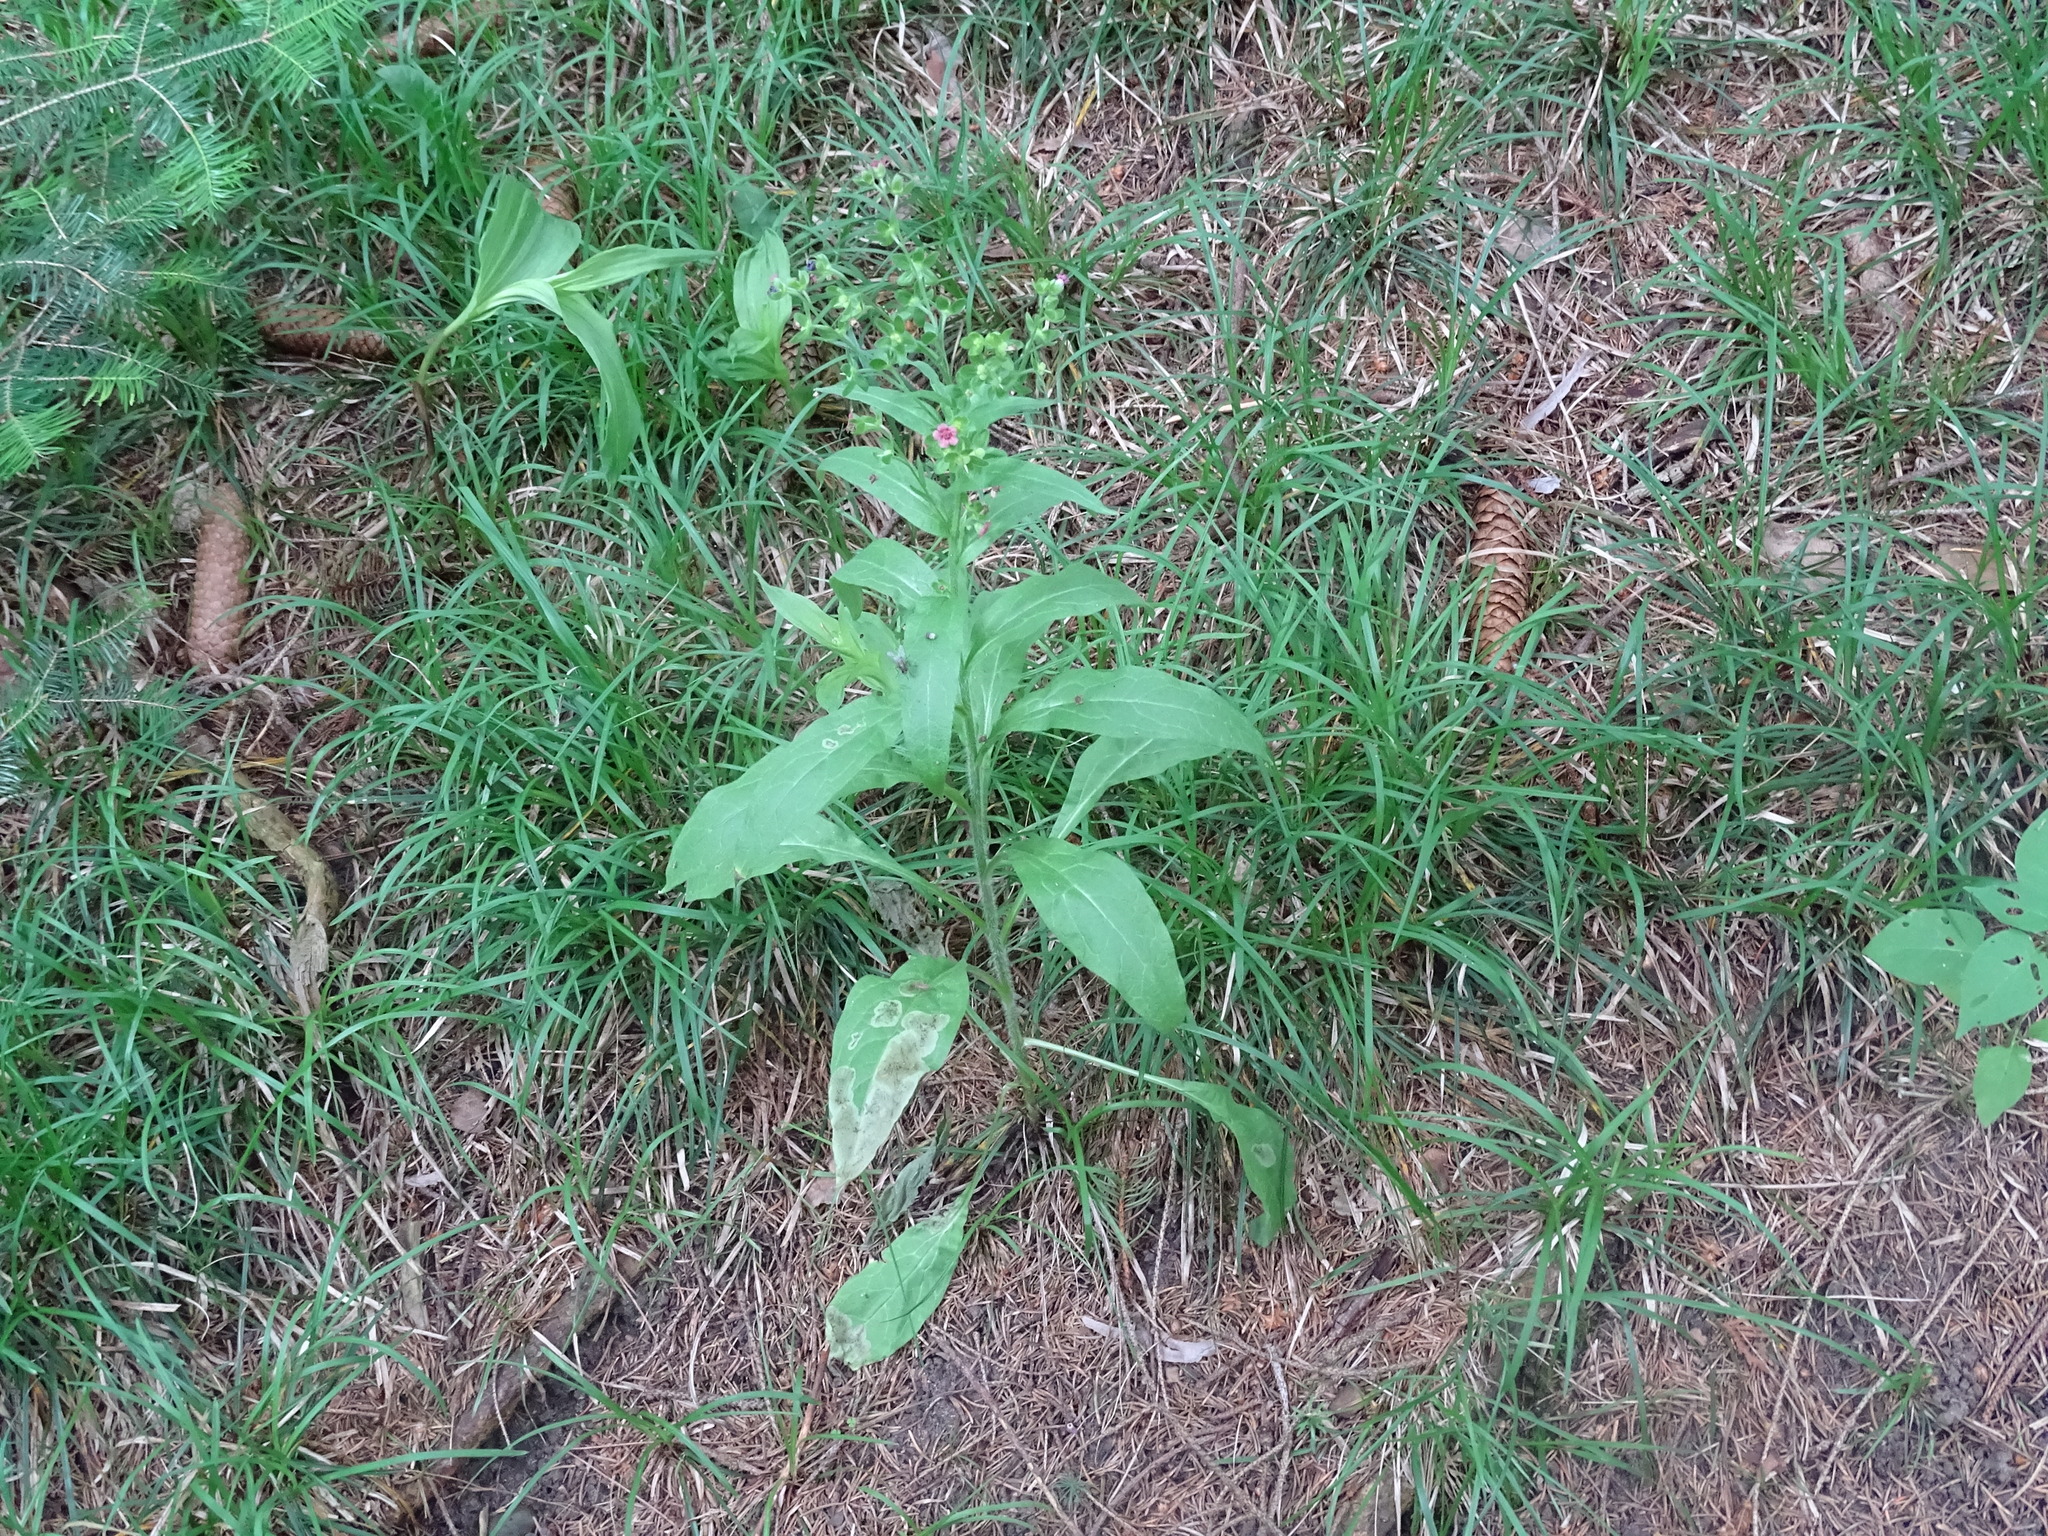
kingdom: Plantae
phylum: Tracheophyta
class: Magnoliopsida
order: Boraginales
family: Boraginaceae
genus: Cynoglossum
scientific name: Cynoglossum officinale
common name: Hound's-tongue
